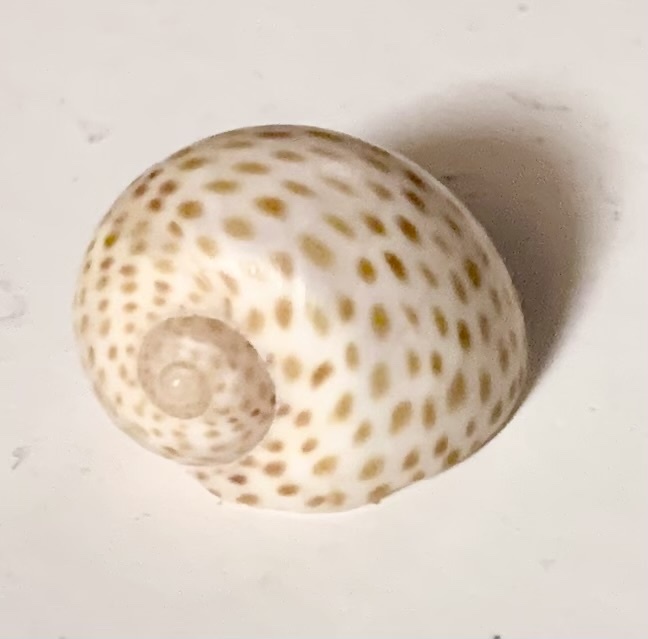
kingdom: Animalia
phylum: Mollusca
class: Gastropoda
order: Littorinimorpha
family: Naticidae
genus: Naticarius
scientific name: Naticarius stercusmuscarum
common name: Fly-speck moonsnail
